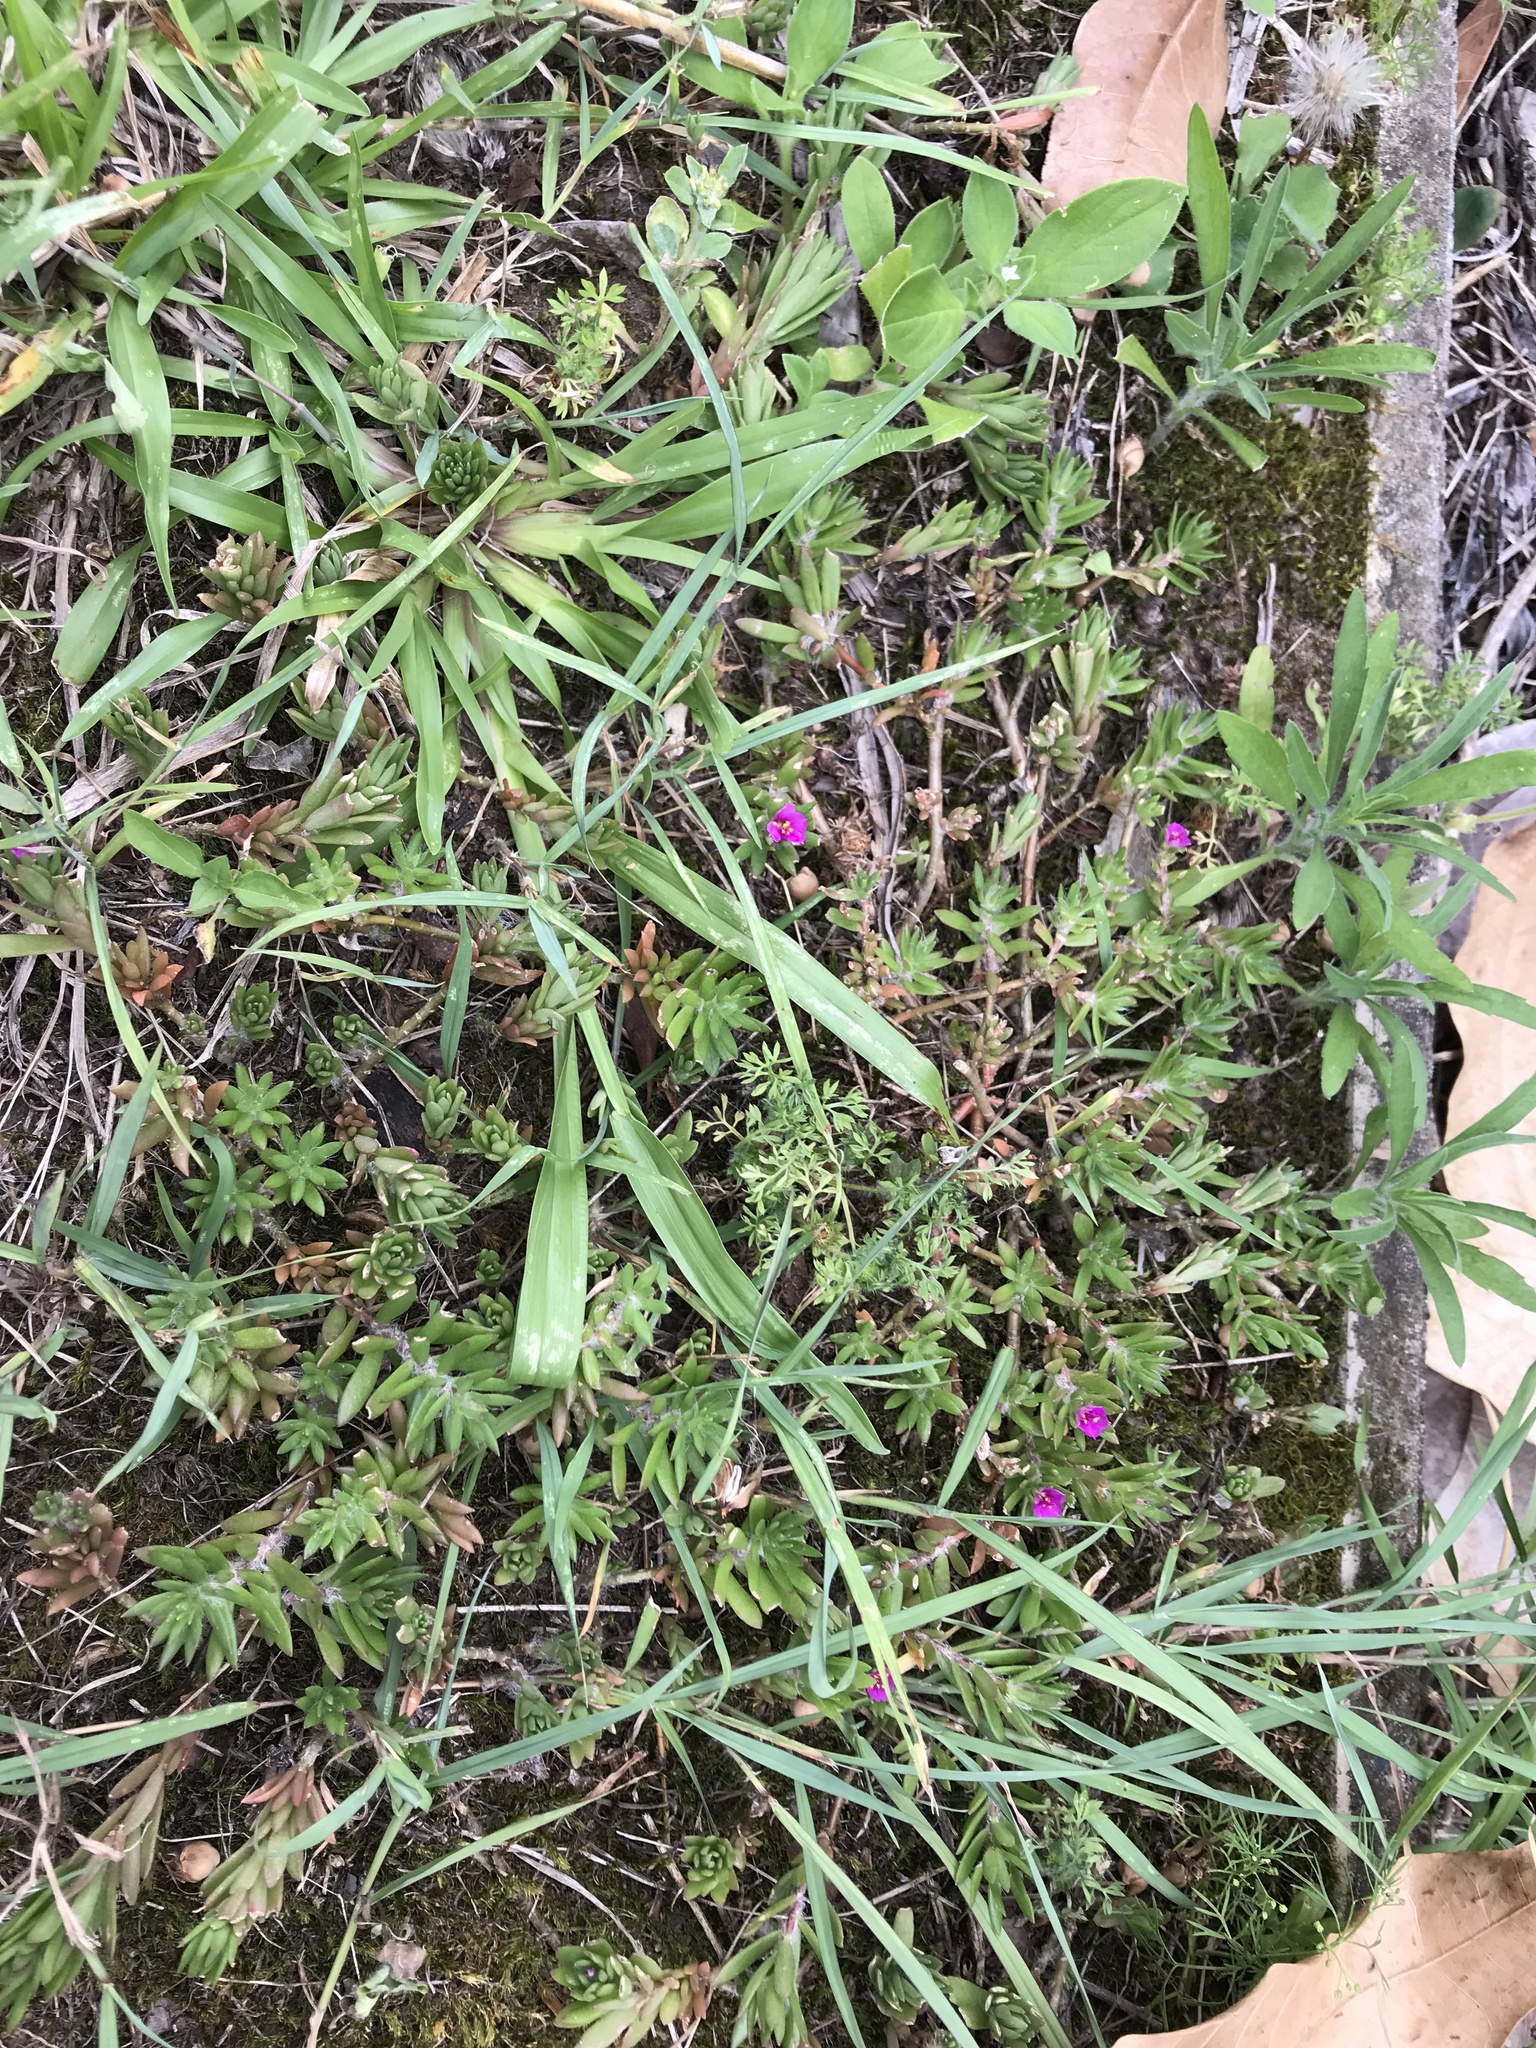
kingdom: Plantae
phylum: Tracheophyta
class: Magnoliopsida
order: Caryophyllales
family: Portulacaceae
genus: Portulaca
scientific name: Portulaca pilosa
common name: Kiss me quick
